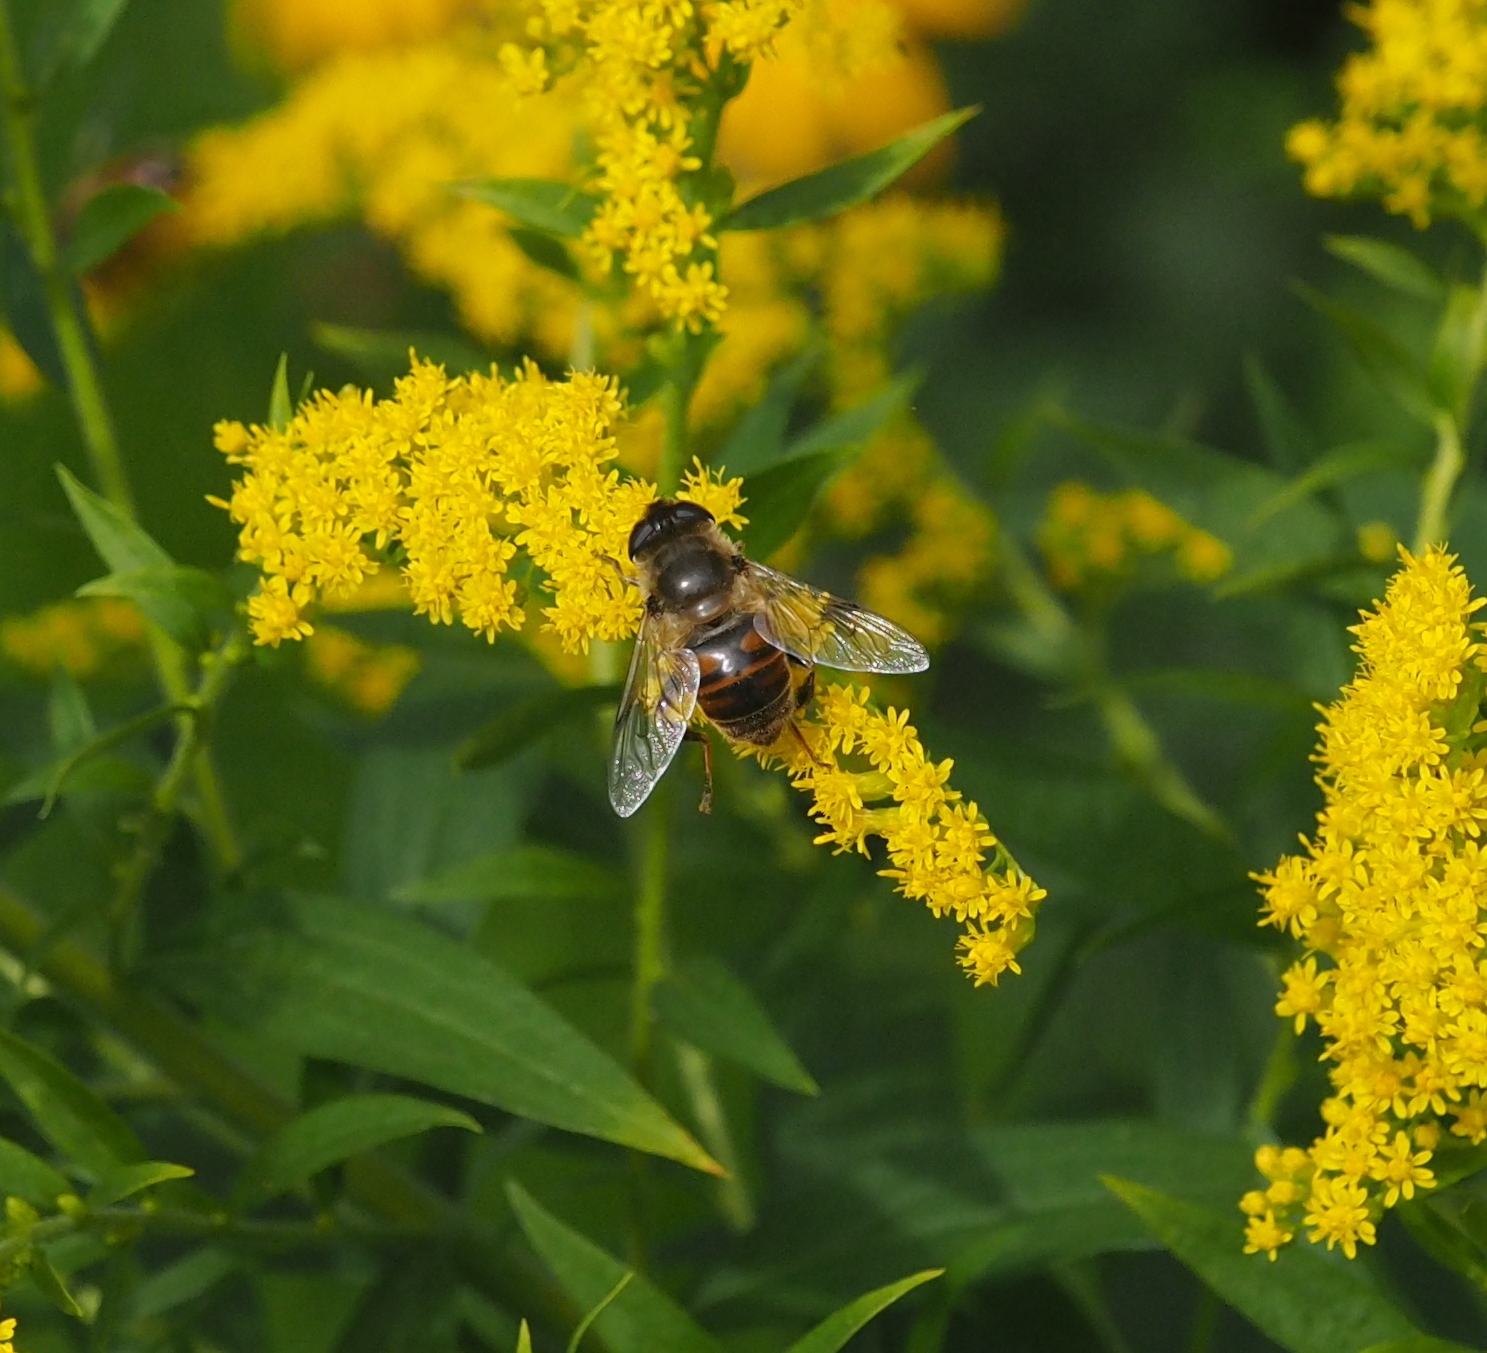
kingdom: Animalia
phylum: Arthropoda
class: Insecta
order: Diptera
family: Syrphidae
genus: Eristalis
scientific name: Eristalis tenax
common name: Drone fly
